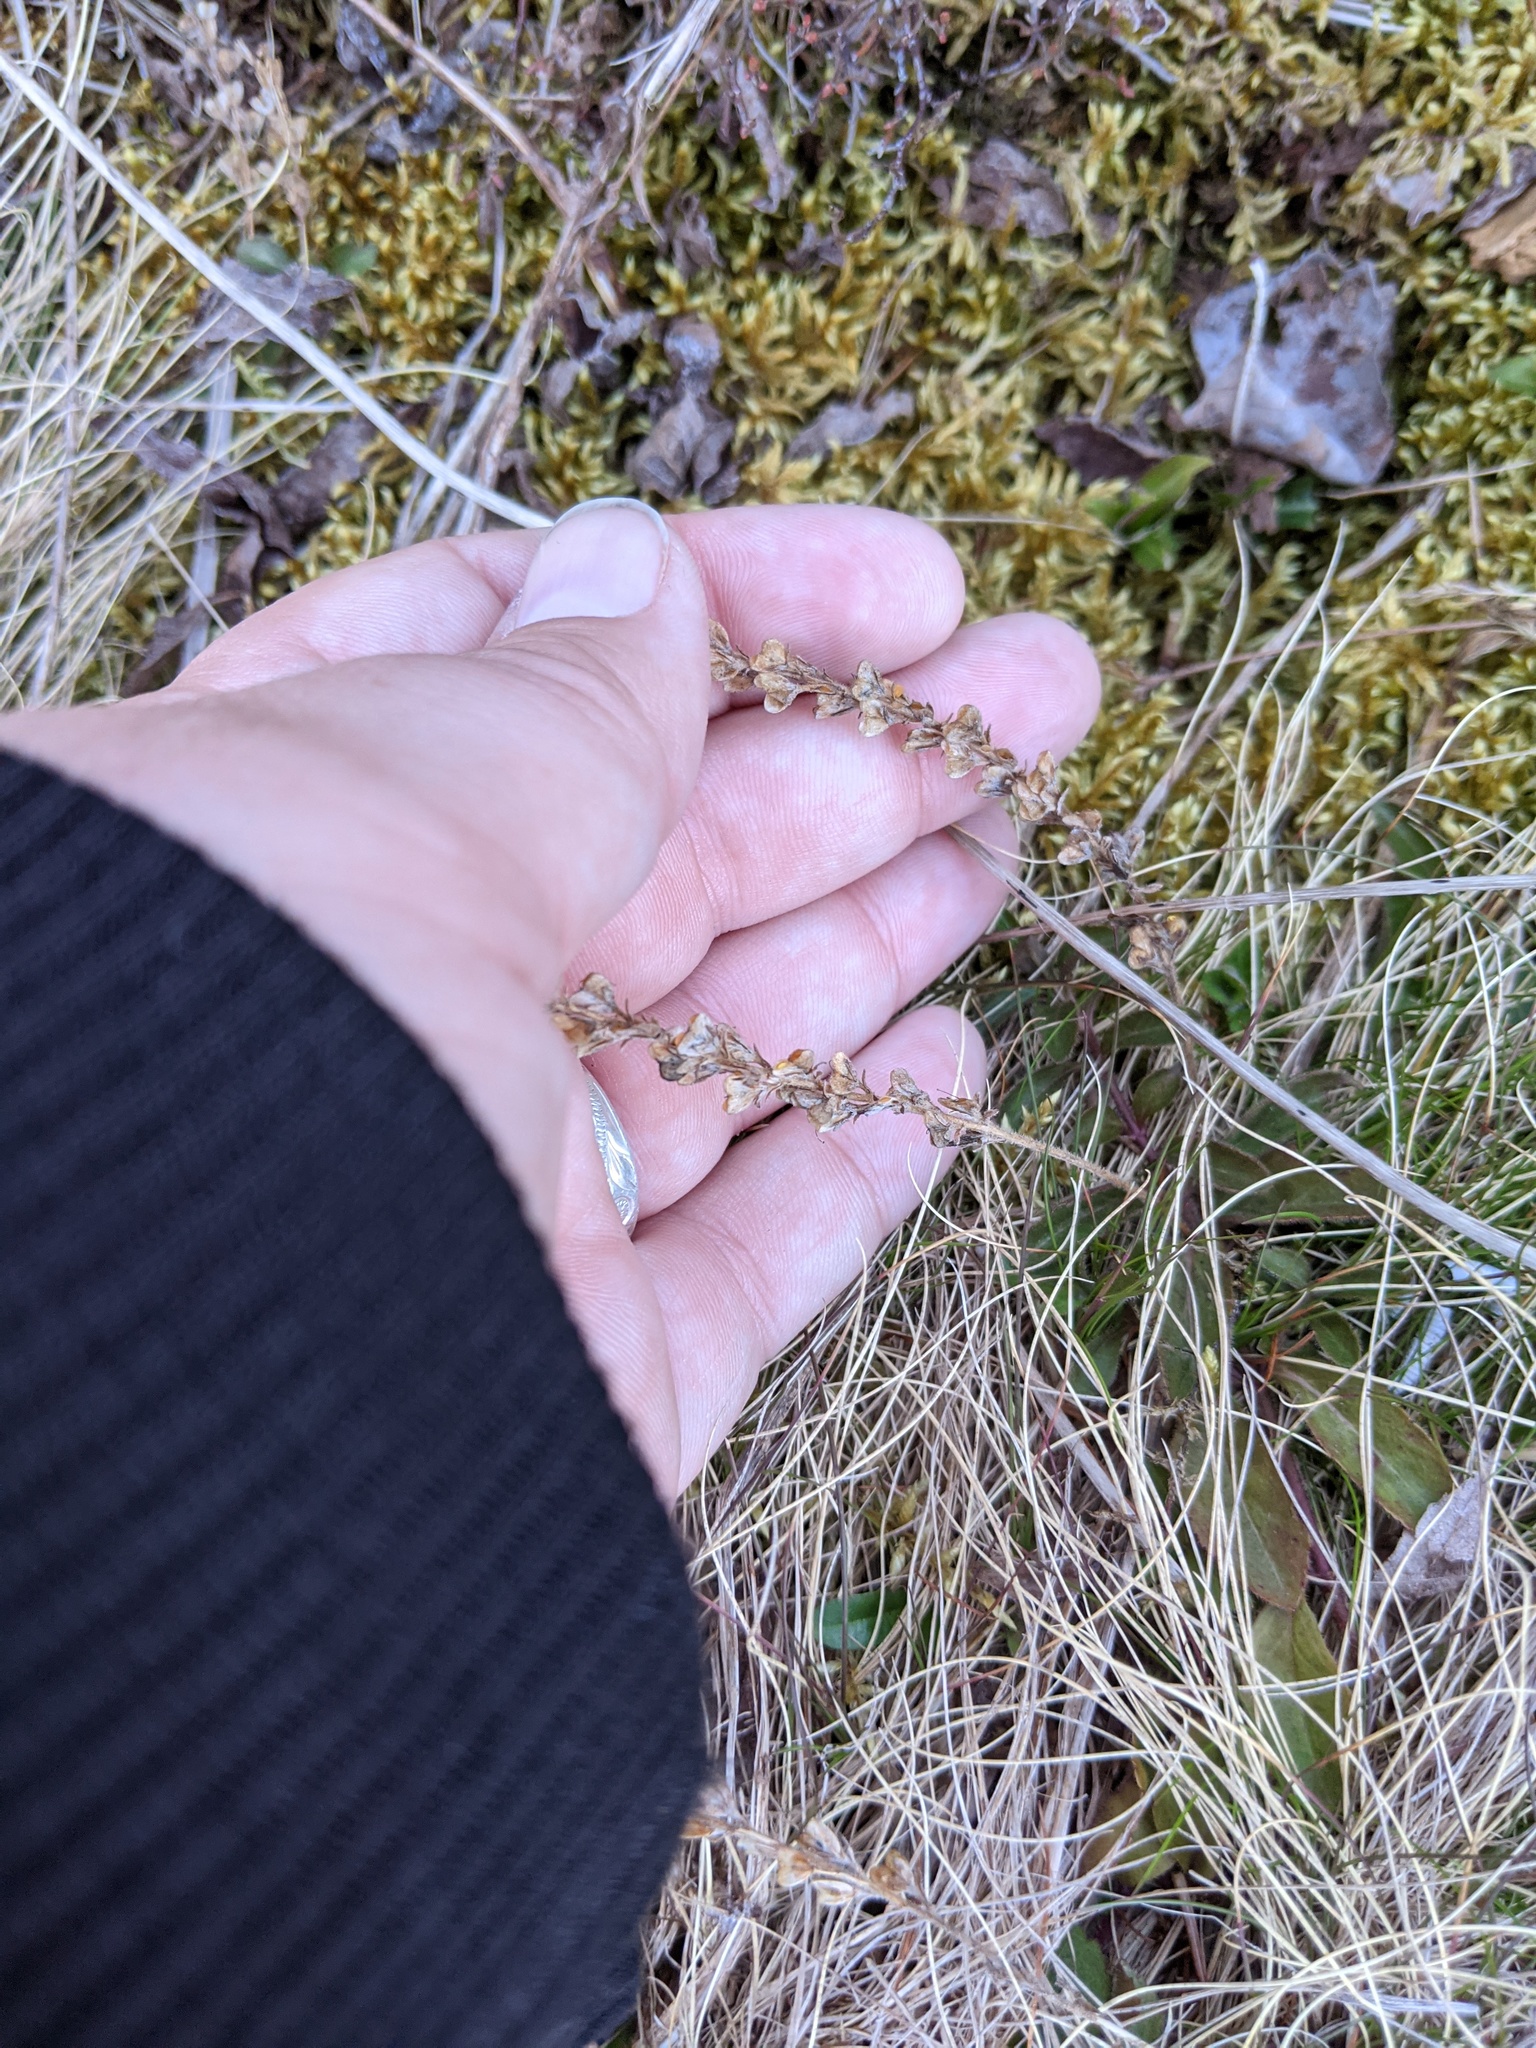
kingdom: Plantae
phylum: Tracheophyta
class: Magnoliopsida
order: Lamiales
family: Plantaginaceae
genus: Veronica
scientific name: Veronica officinalis
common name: Common speedwell
